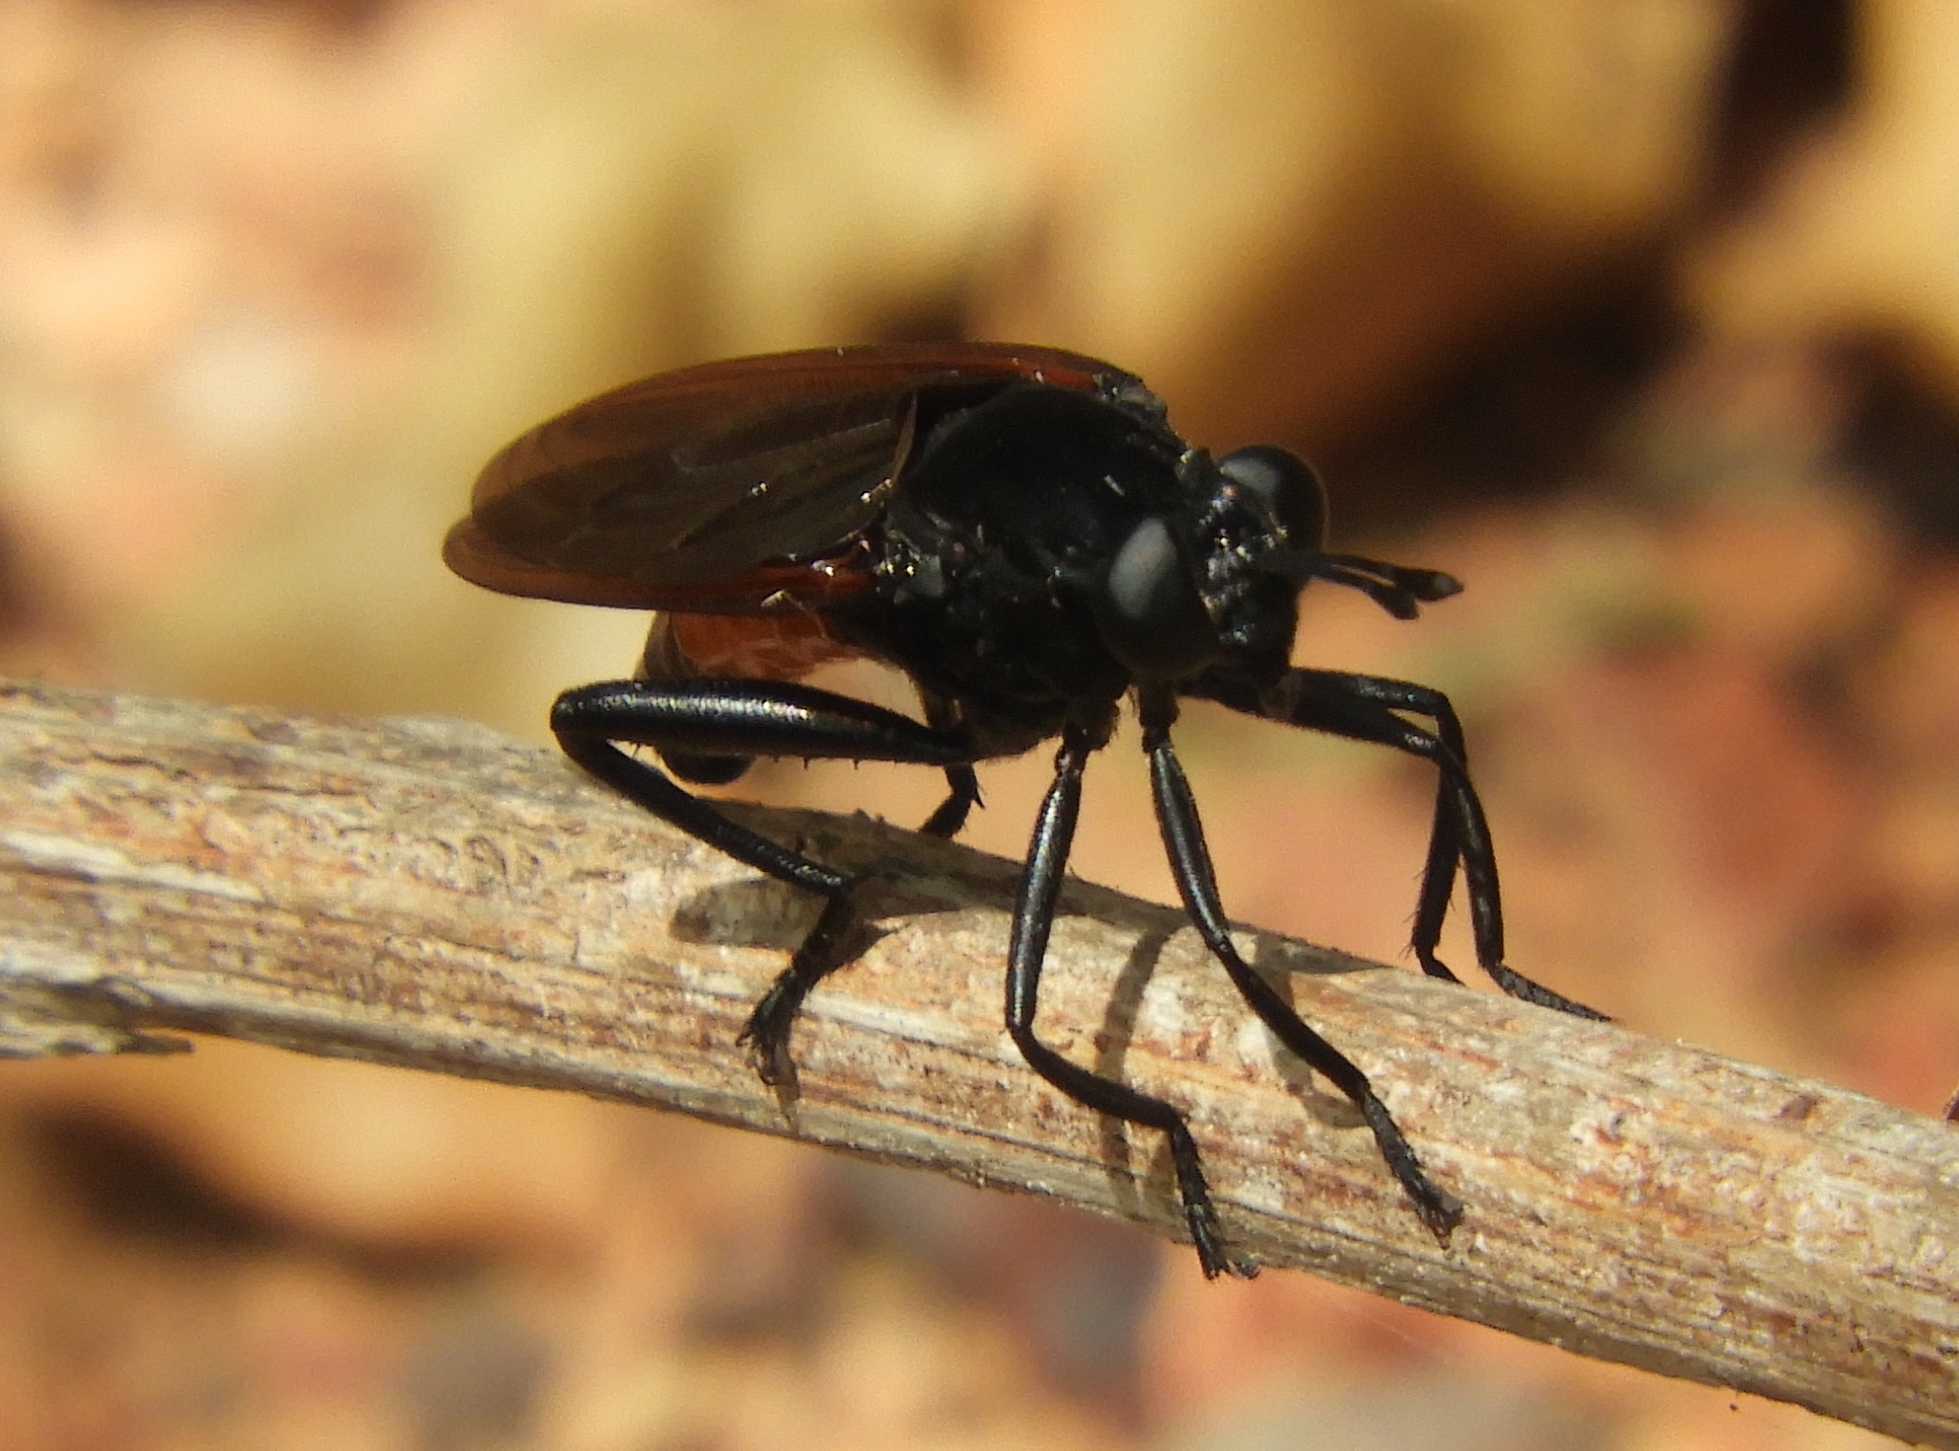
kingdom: Animalia
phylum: Arthropoda
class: Insecta
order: Diptera
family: Mydidae
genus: Mydas
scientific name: Mydas ventralis
